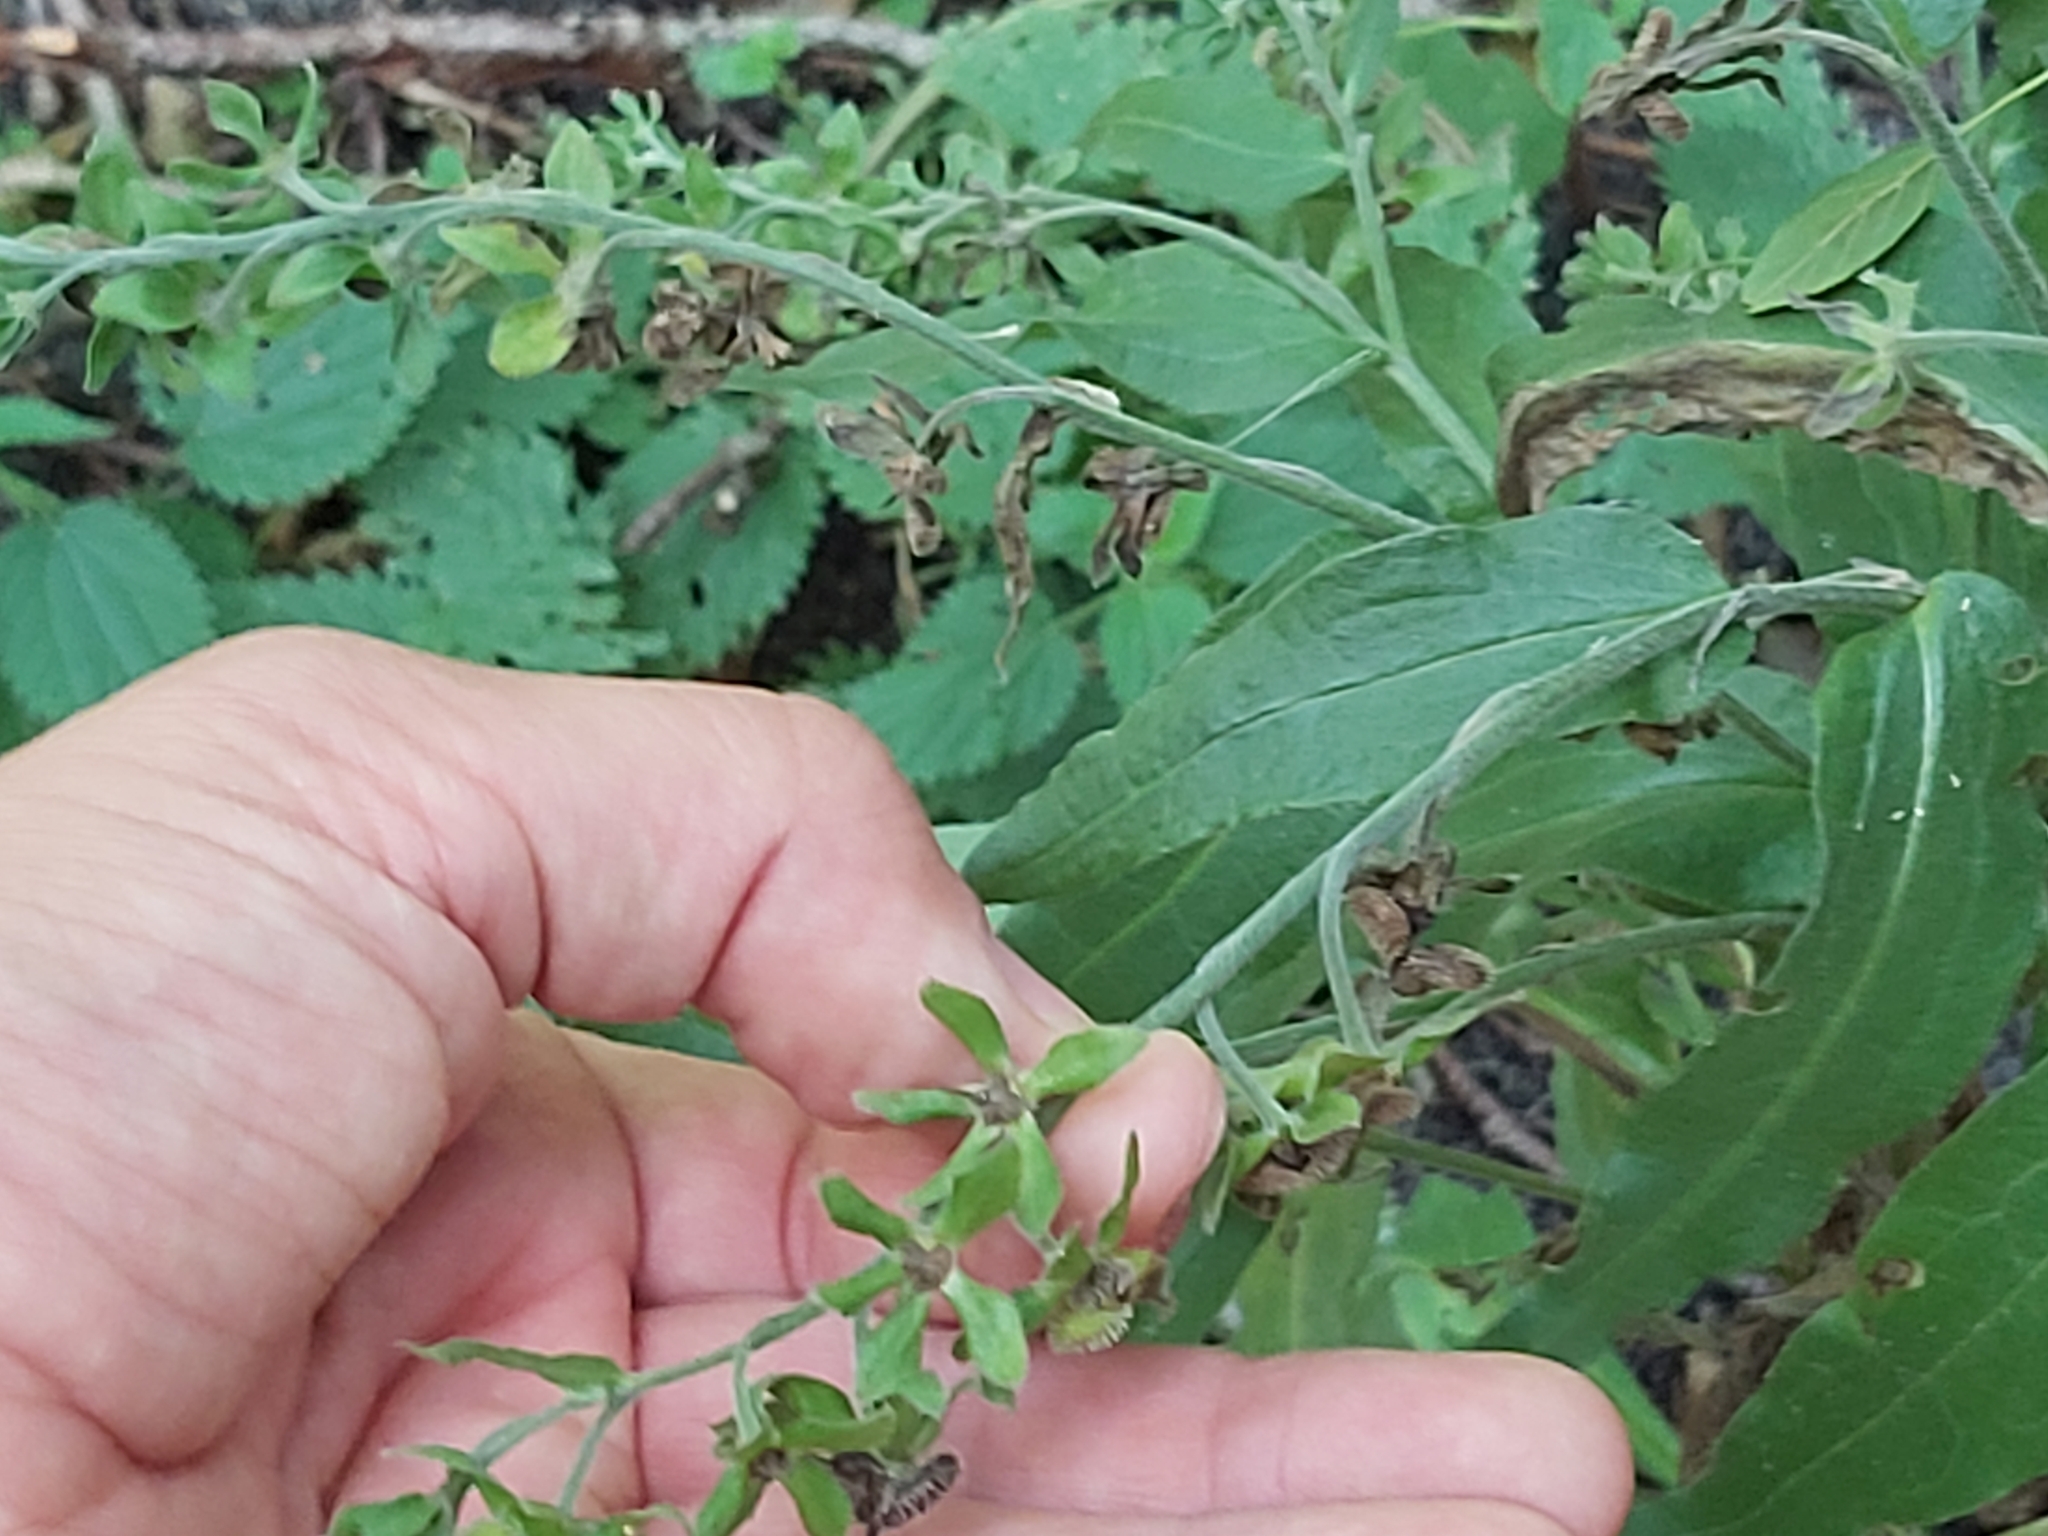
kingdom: Plantae
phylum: Tracheophyta
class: Magnoliopsida
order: Boraginales
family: Boraginaceae
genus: Cynoglossum
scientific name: Cynoglossum officinale
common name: Hound's-tongue
